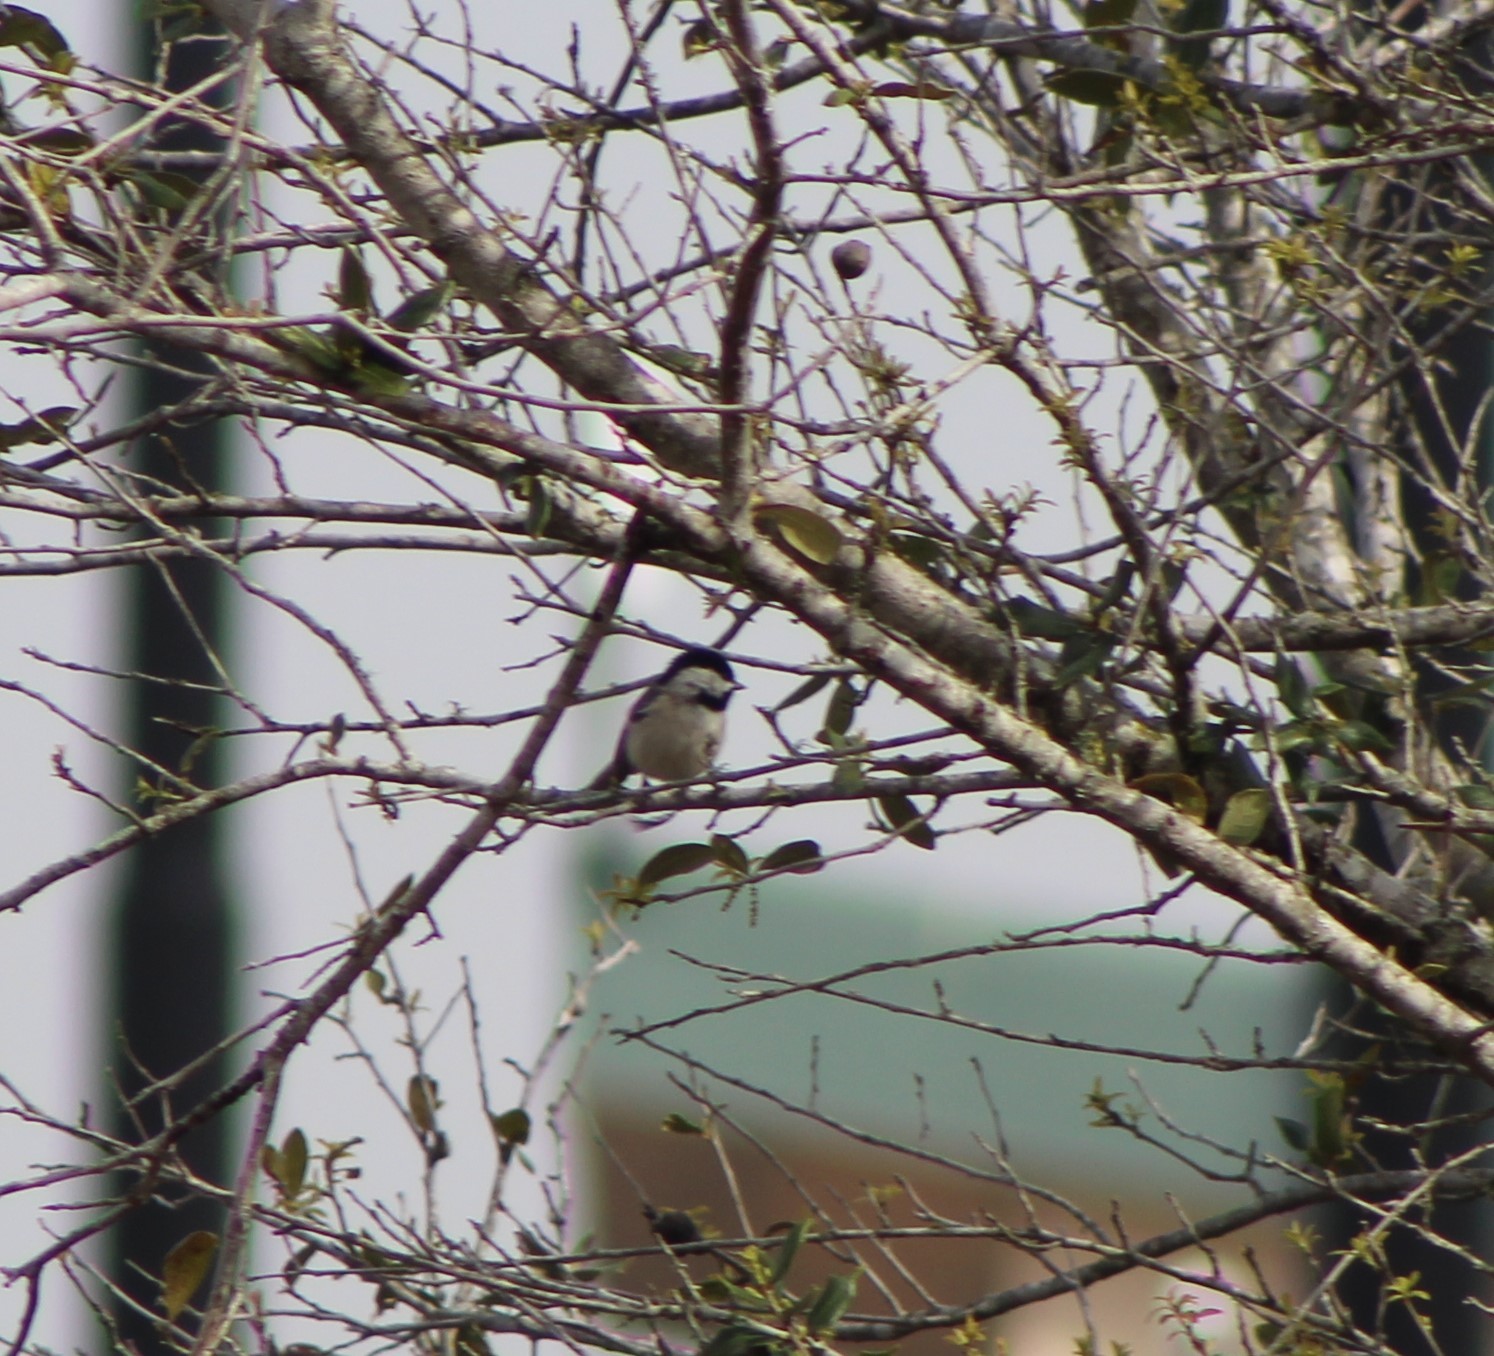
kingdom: Animalia
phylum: Chordata
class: Aves
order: Passeriformes
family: Paridae
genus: Poecile
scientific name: Poecile carolinensis
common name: Carolina chickadee
